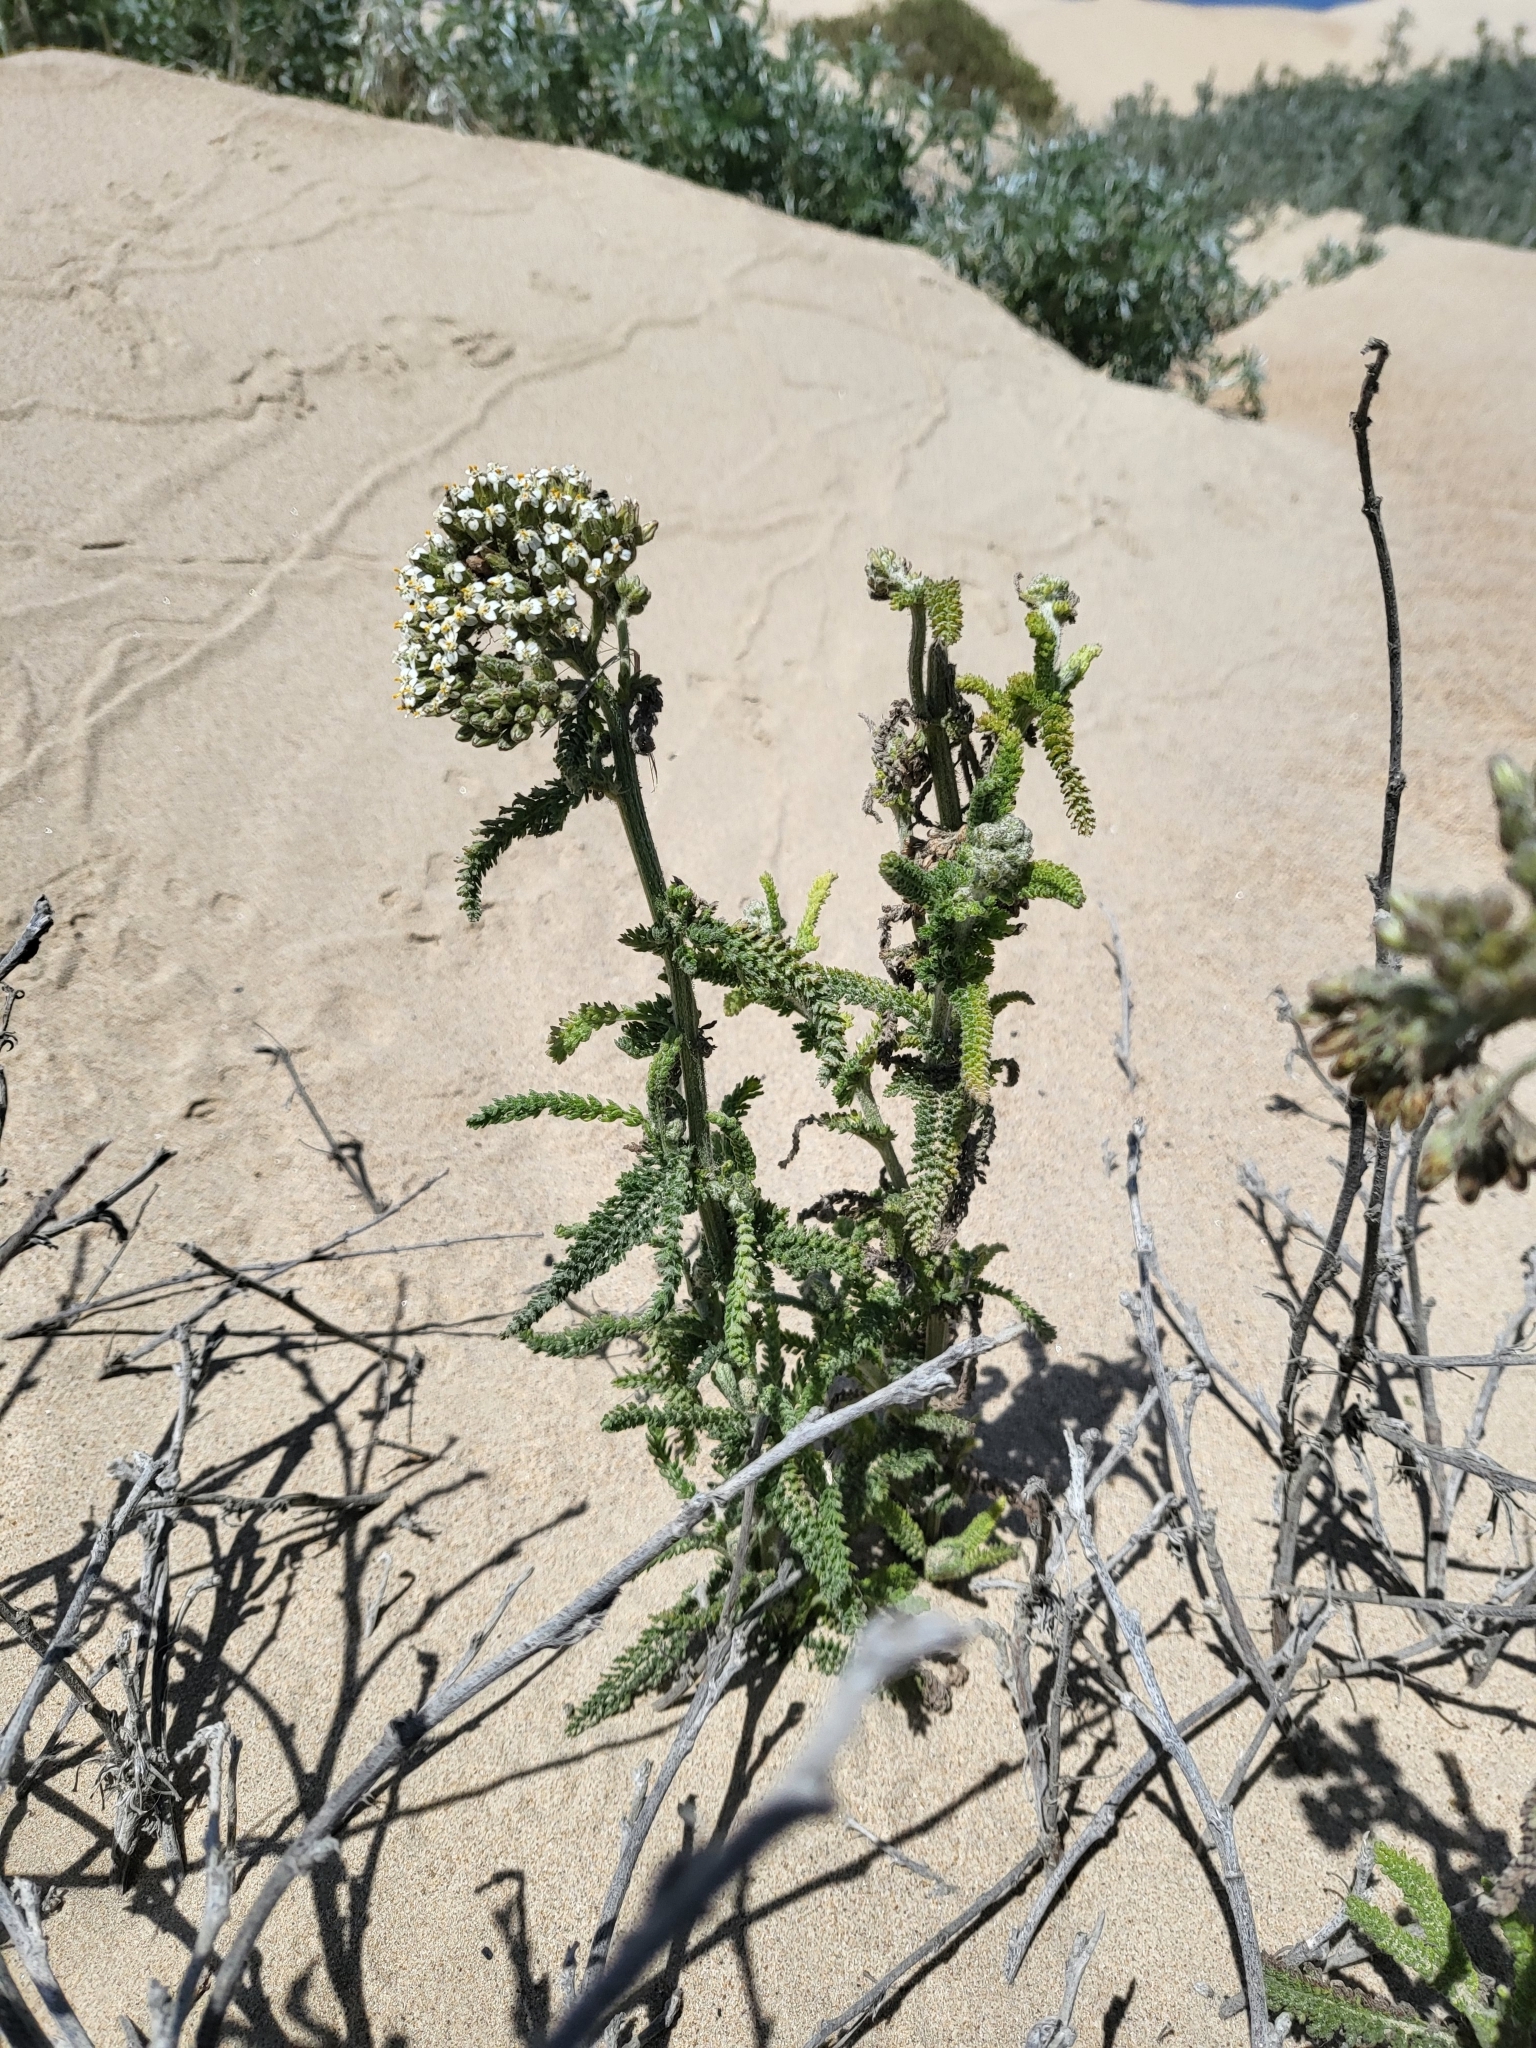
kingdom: Plantae
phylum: Tracheophyta
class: Magnoliopsida
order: Asterales
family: Asteraceae
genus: Achillea
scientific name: Achillea millefolium
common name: Yarrow
